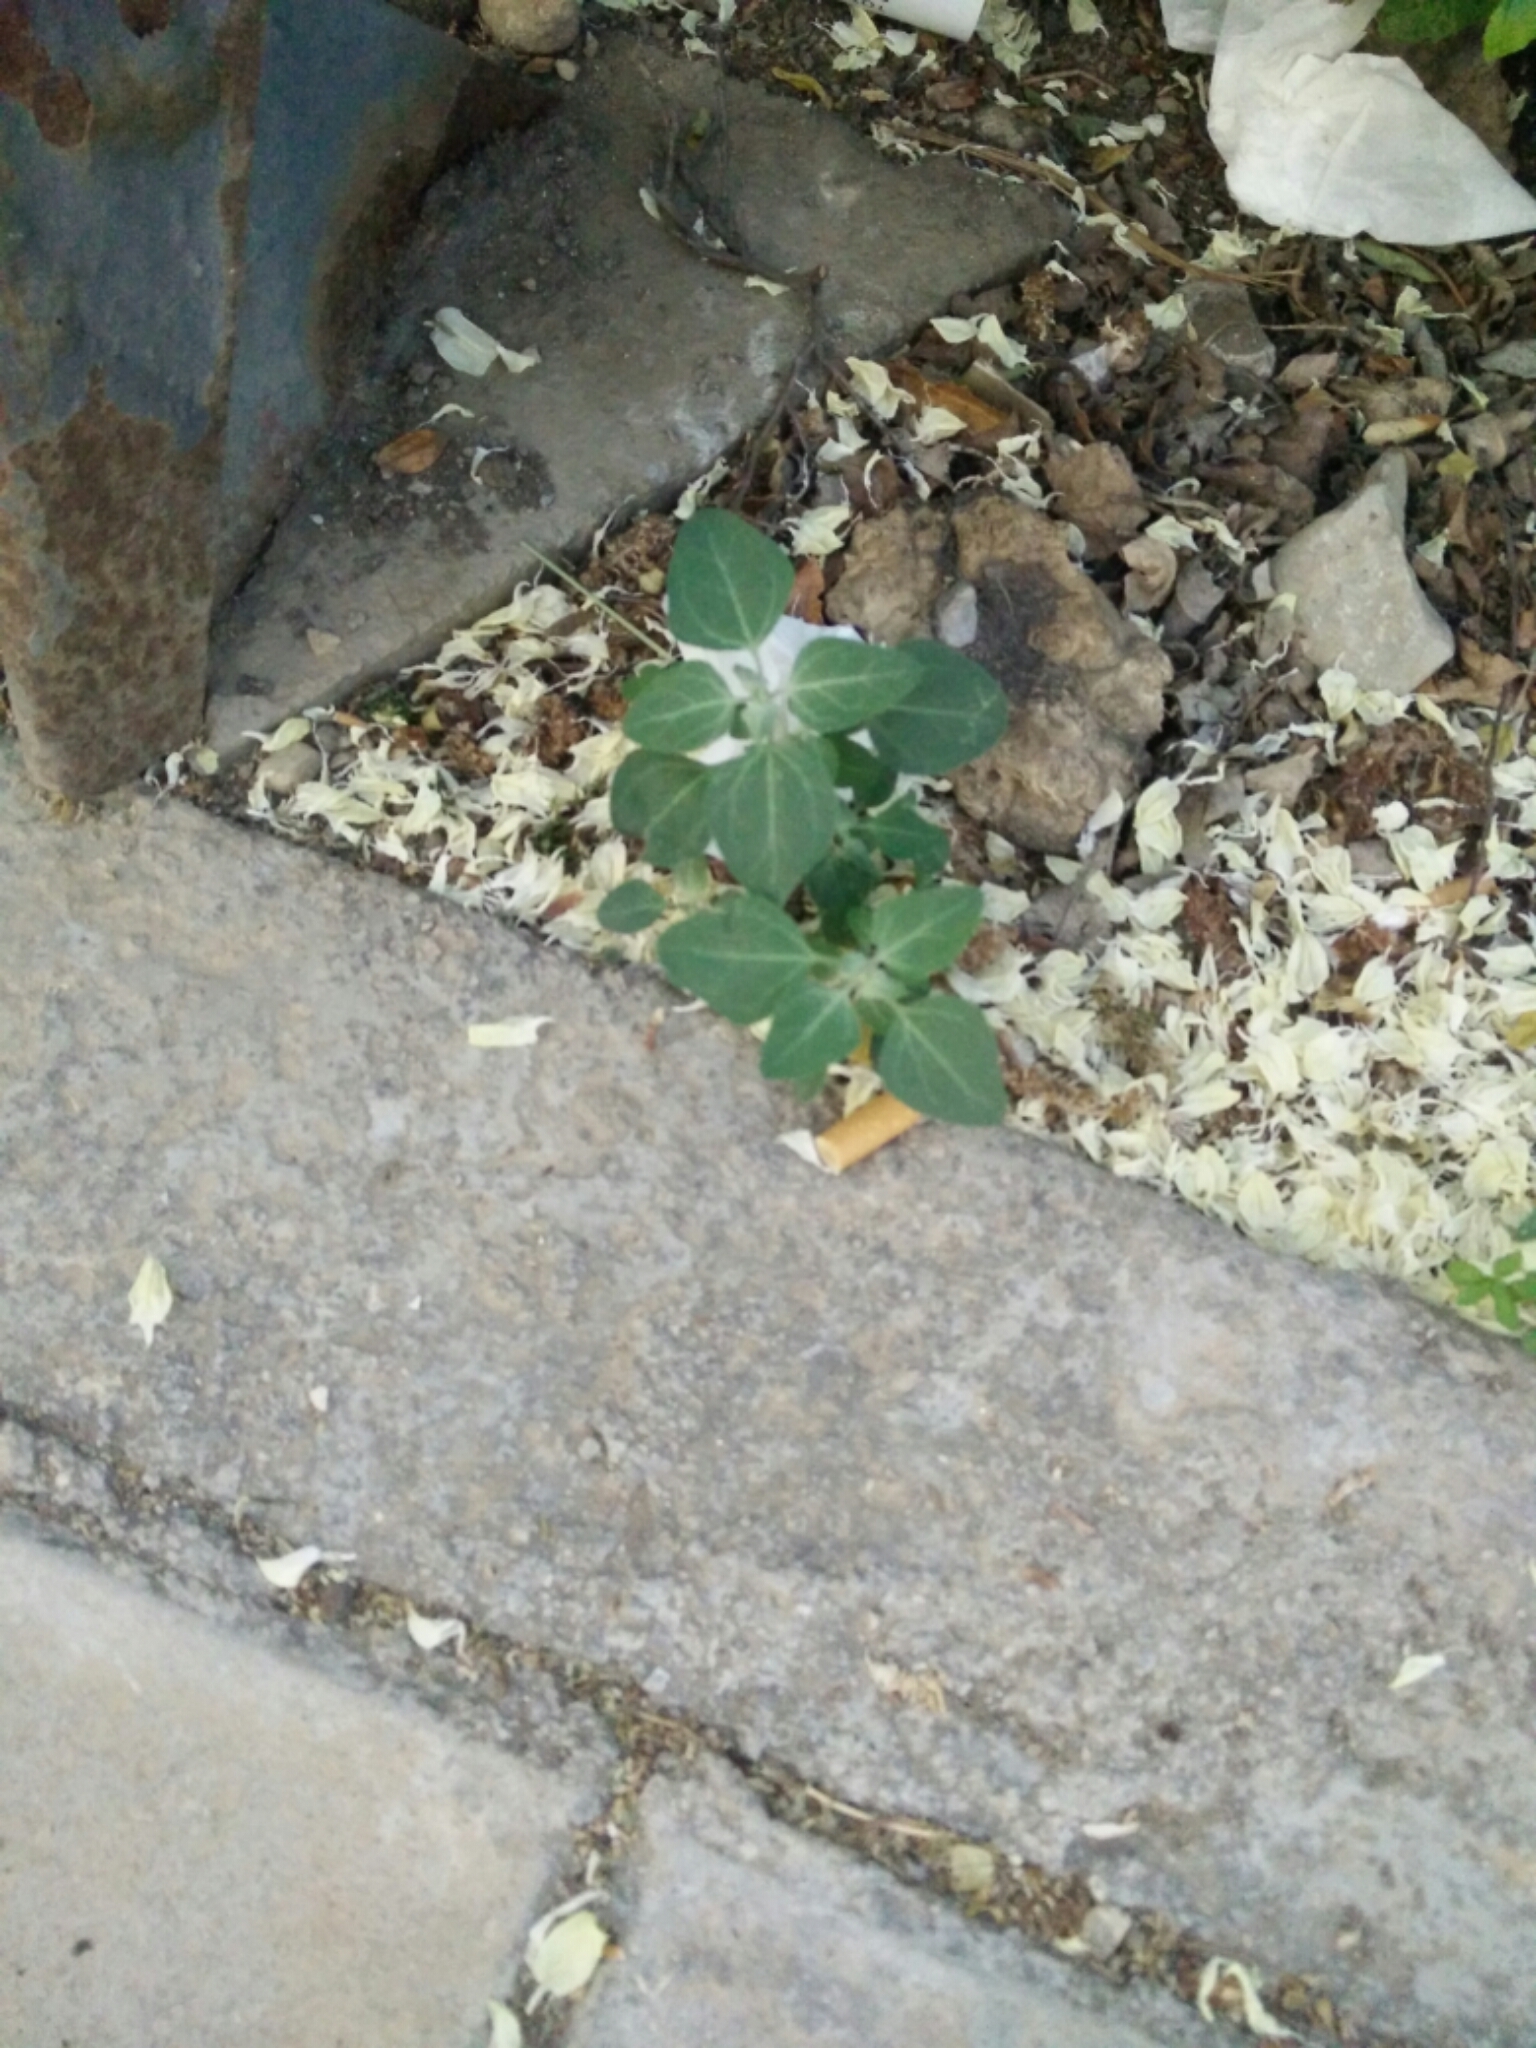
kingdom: Plantae
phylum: Tracheophyta
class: Magnoliopsida
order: Caryophyllales
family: Amaranthaceae
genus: Chenopodium
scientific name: Chenopodium vulvaria
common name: Stinking goosefoot
